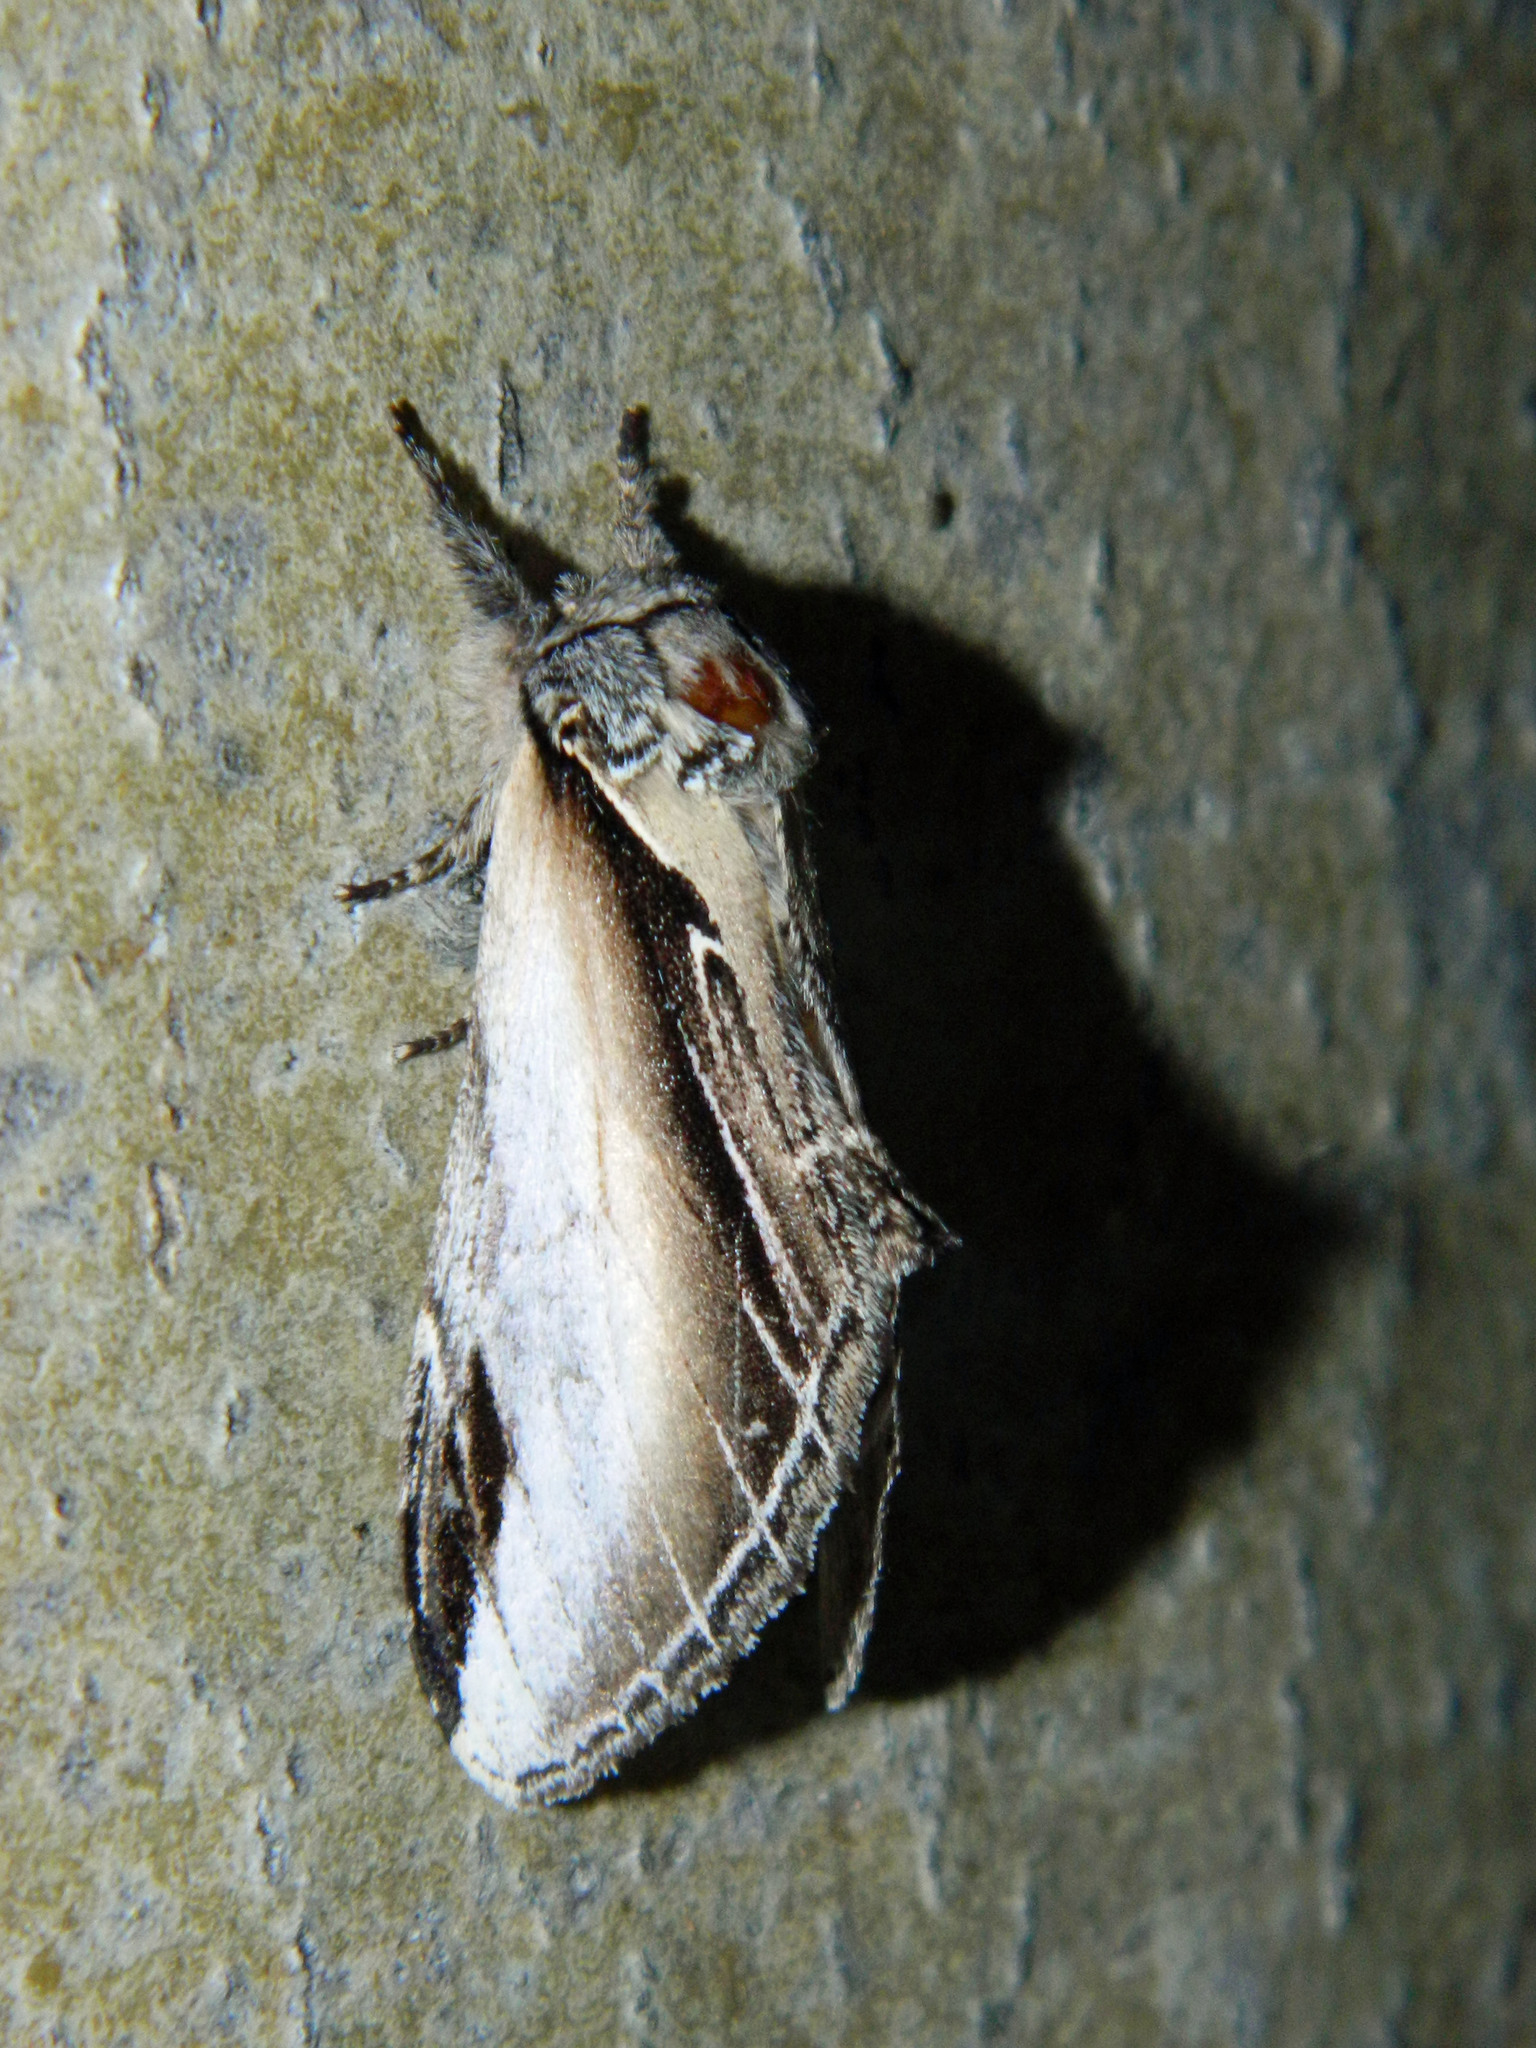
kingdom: Animalia
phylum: Arthropoda
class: Insecta
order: Lepidoptera
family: Notodontidae
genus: Pheosia
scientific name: Pheosia rimosa
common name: Black-rimmed prominent
